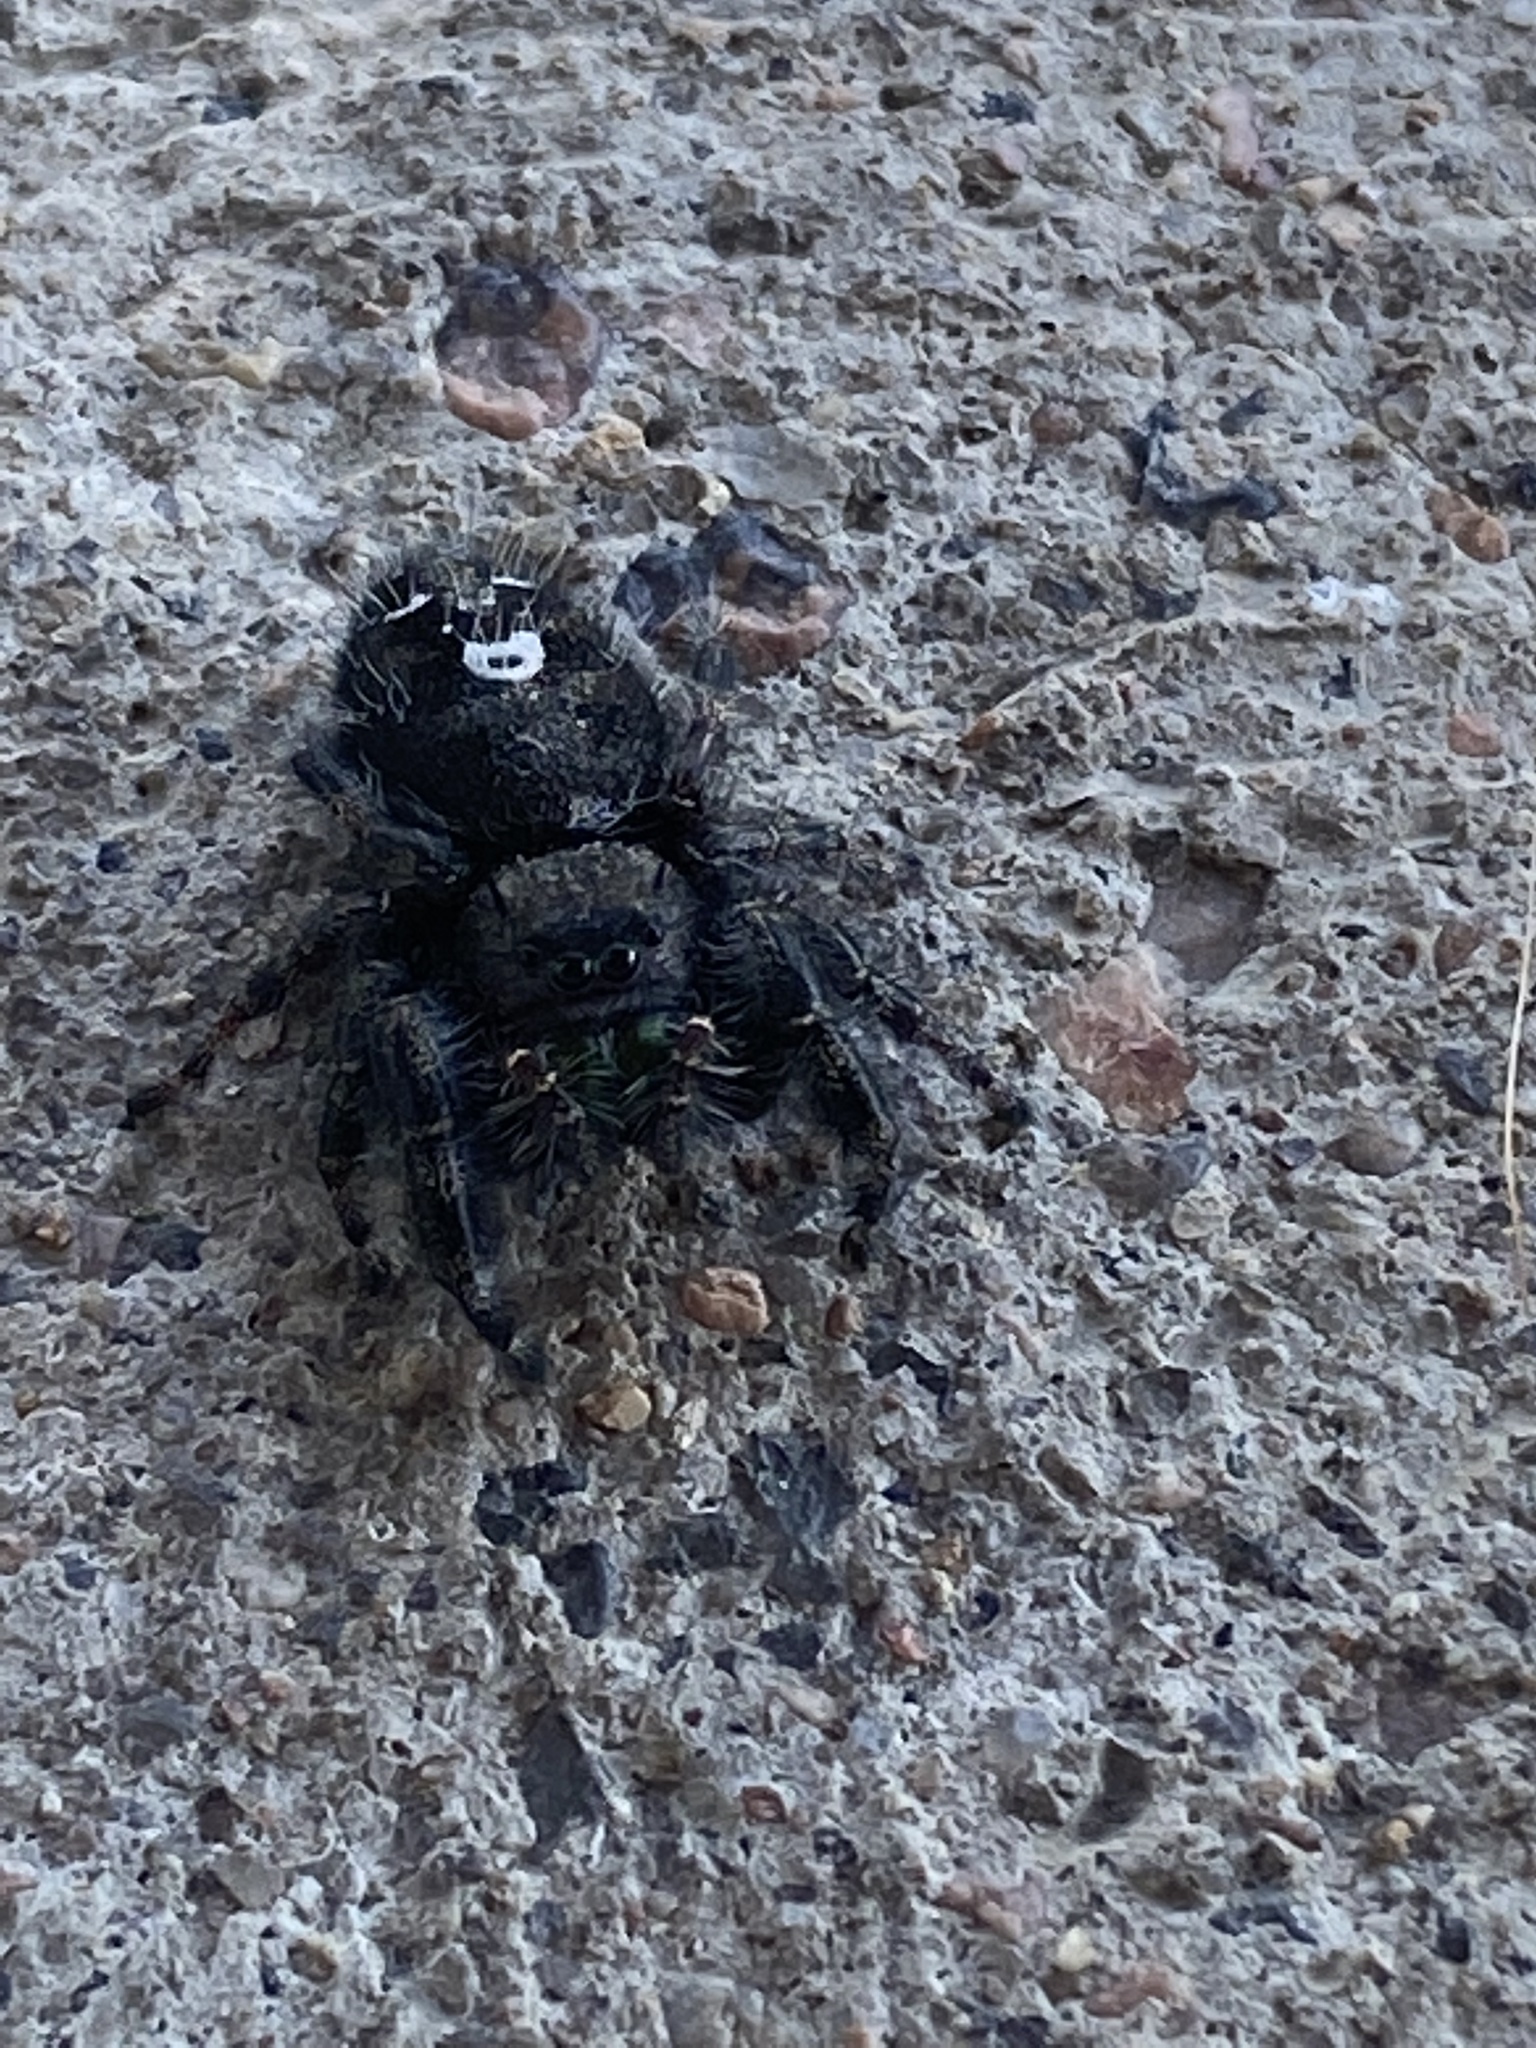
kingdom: Animalia
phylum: Arthropoda
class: Arachnida
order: Araneae
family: Salticidae
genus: Phidippus
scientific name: Phidippus audax
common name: Bold jumper
